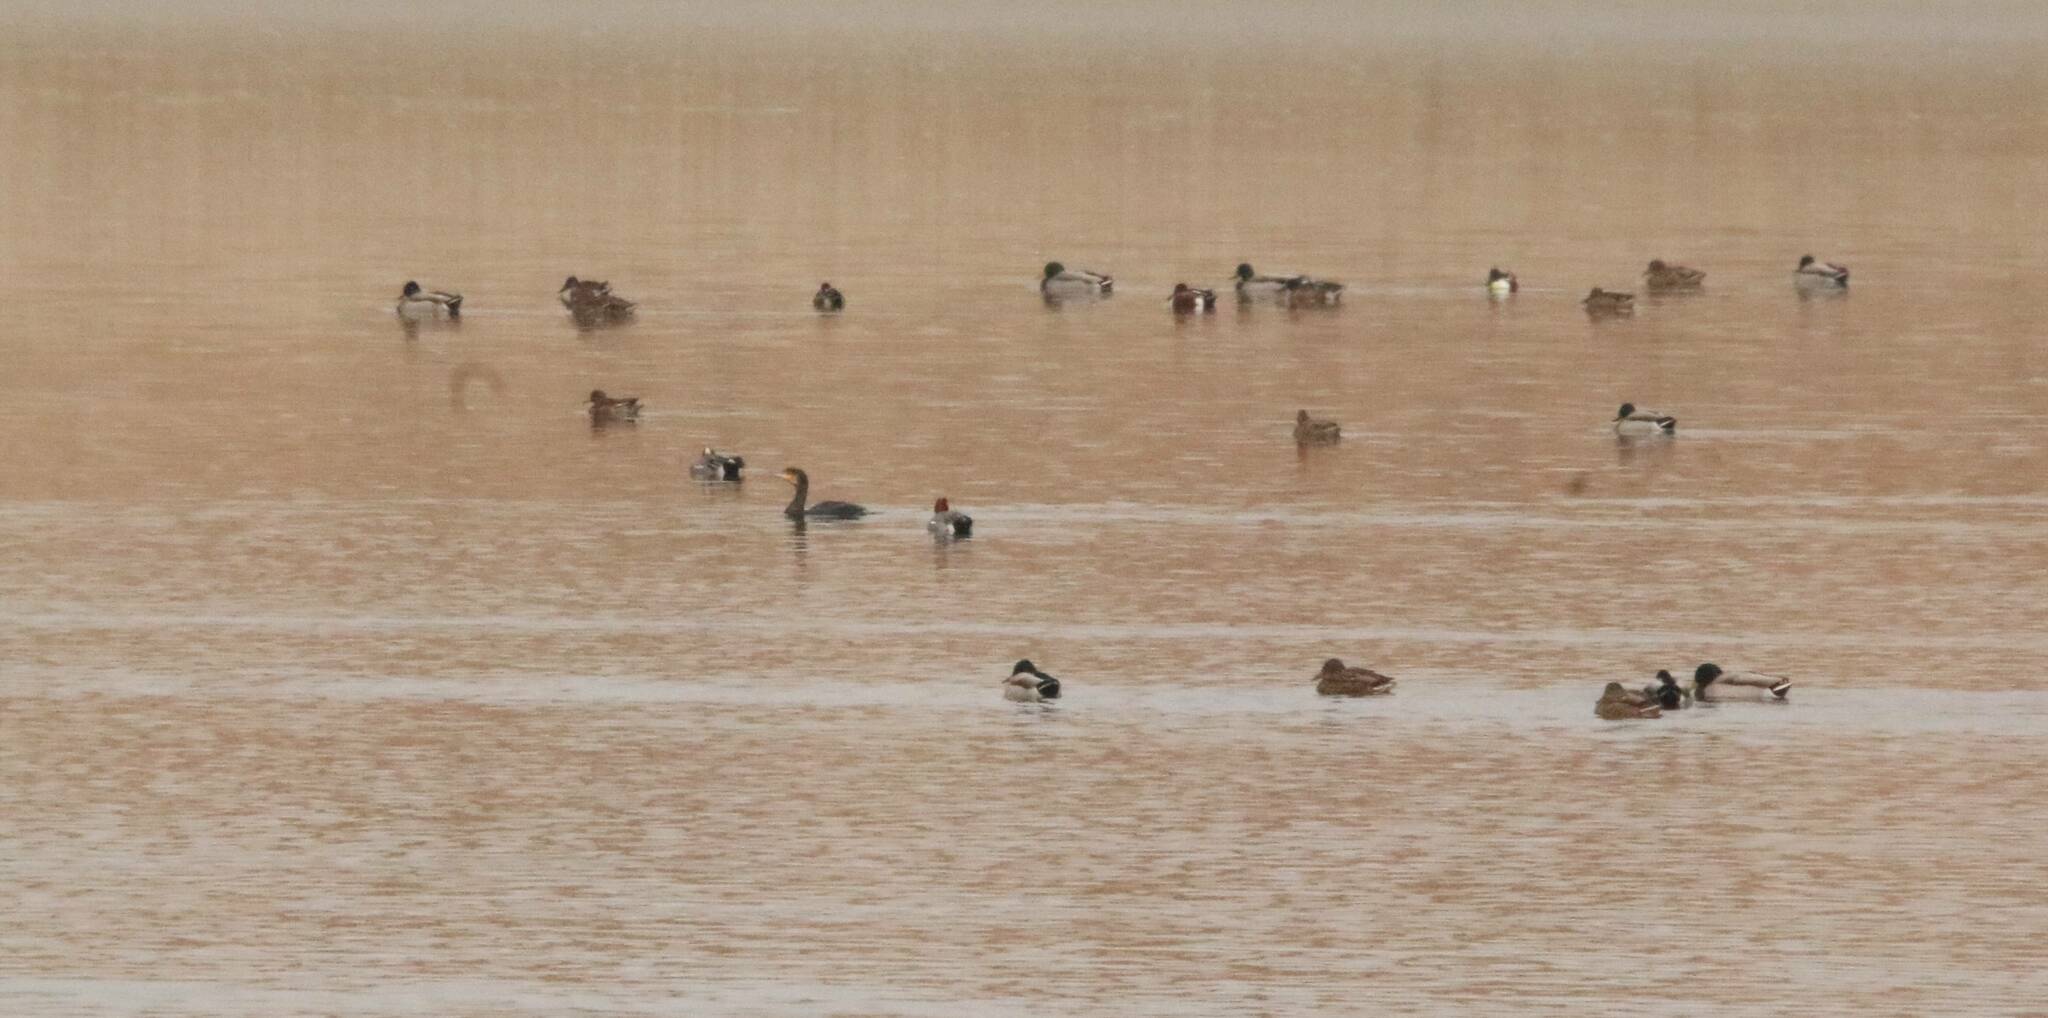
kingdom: Animalia
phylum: Chordata
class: Aves
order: Suliformes
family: Phalacrocoracidae
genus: Phalacrocorax
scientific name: Phalacrocorax carbo
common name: Great cormorant
